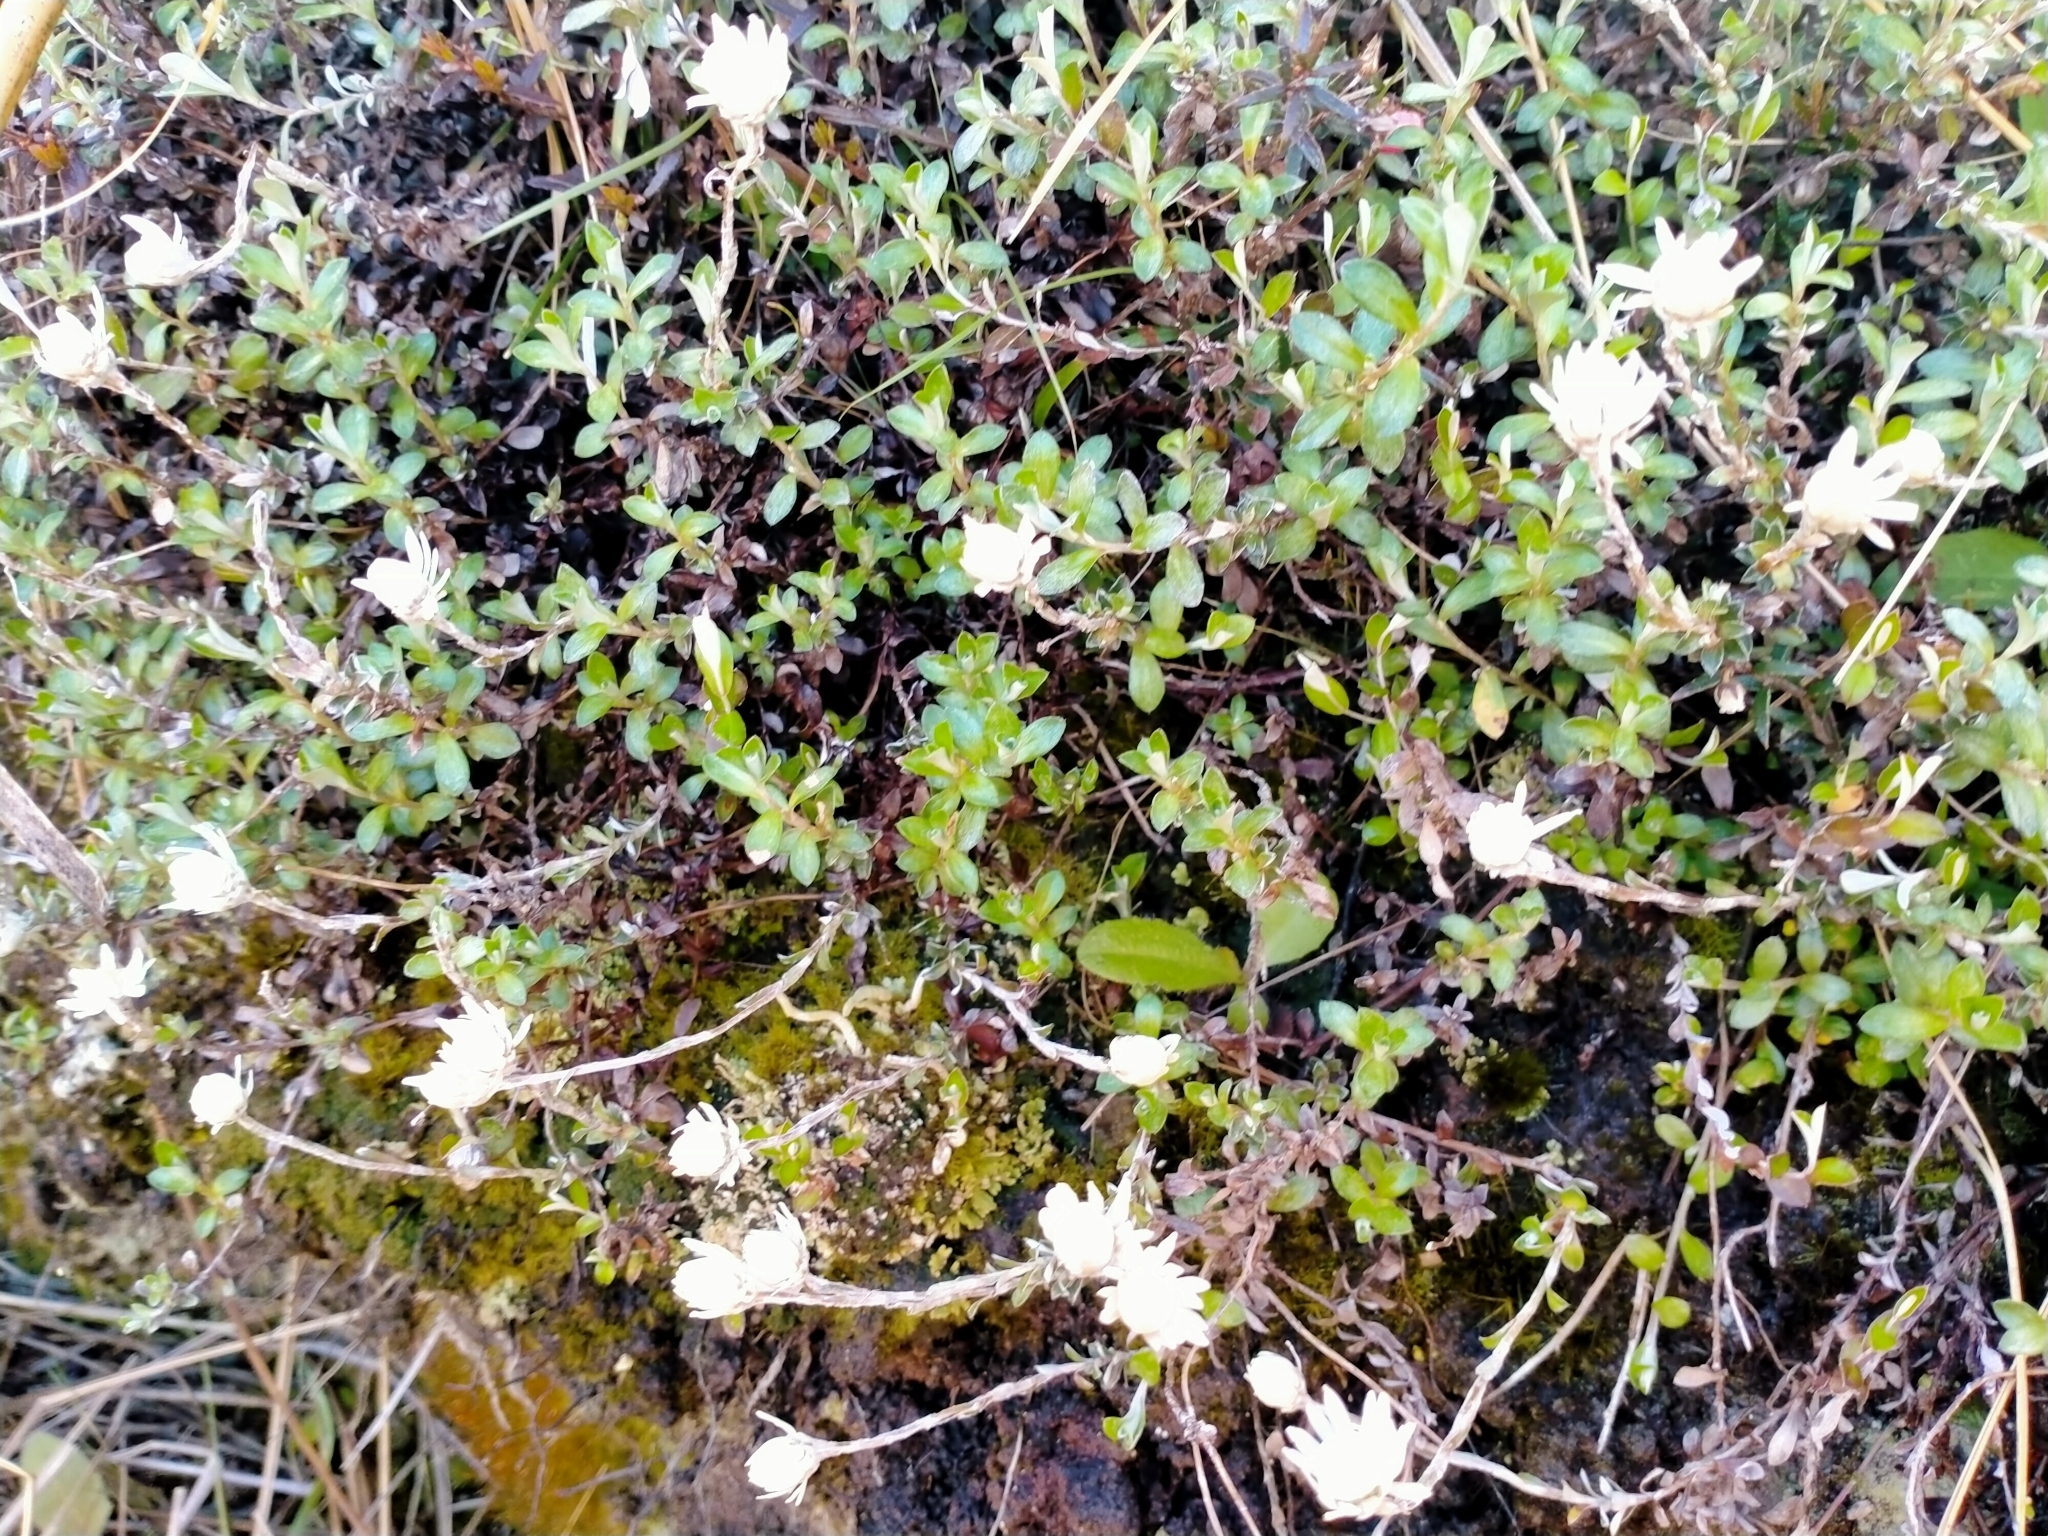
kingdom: Plantae
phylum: Tracheophyta
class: Magnoliopsida
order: Asterales
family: Asteraceae
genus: Anaphalioides
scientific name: Anaphalioides bellidioides
